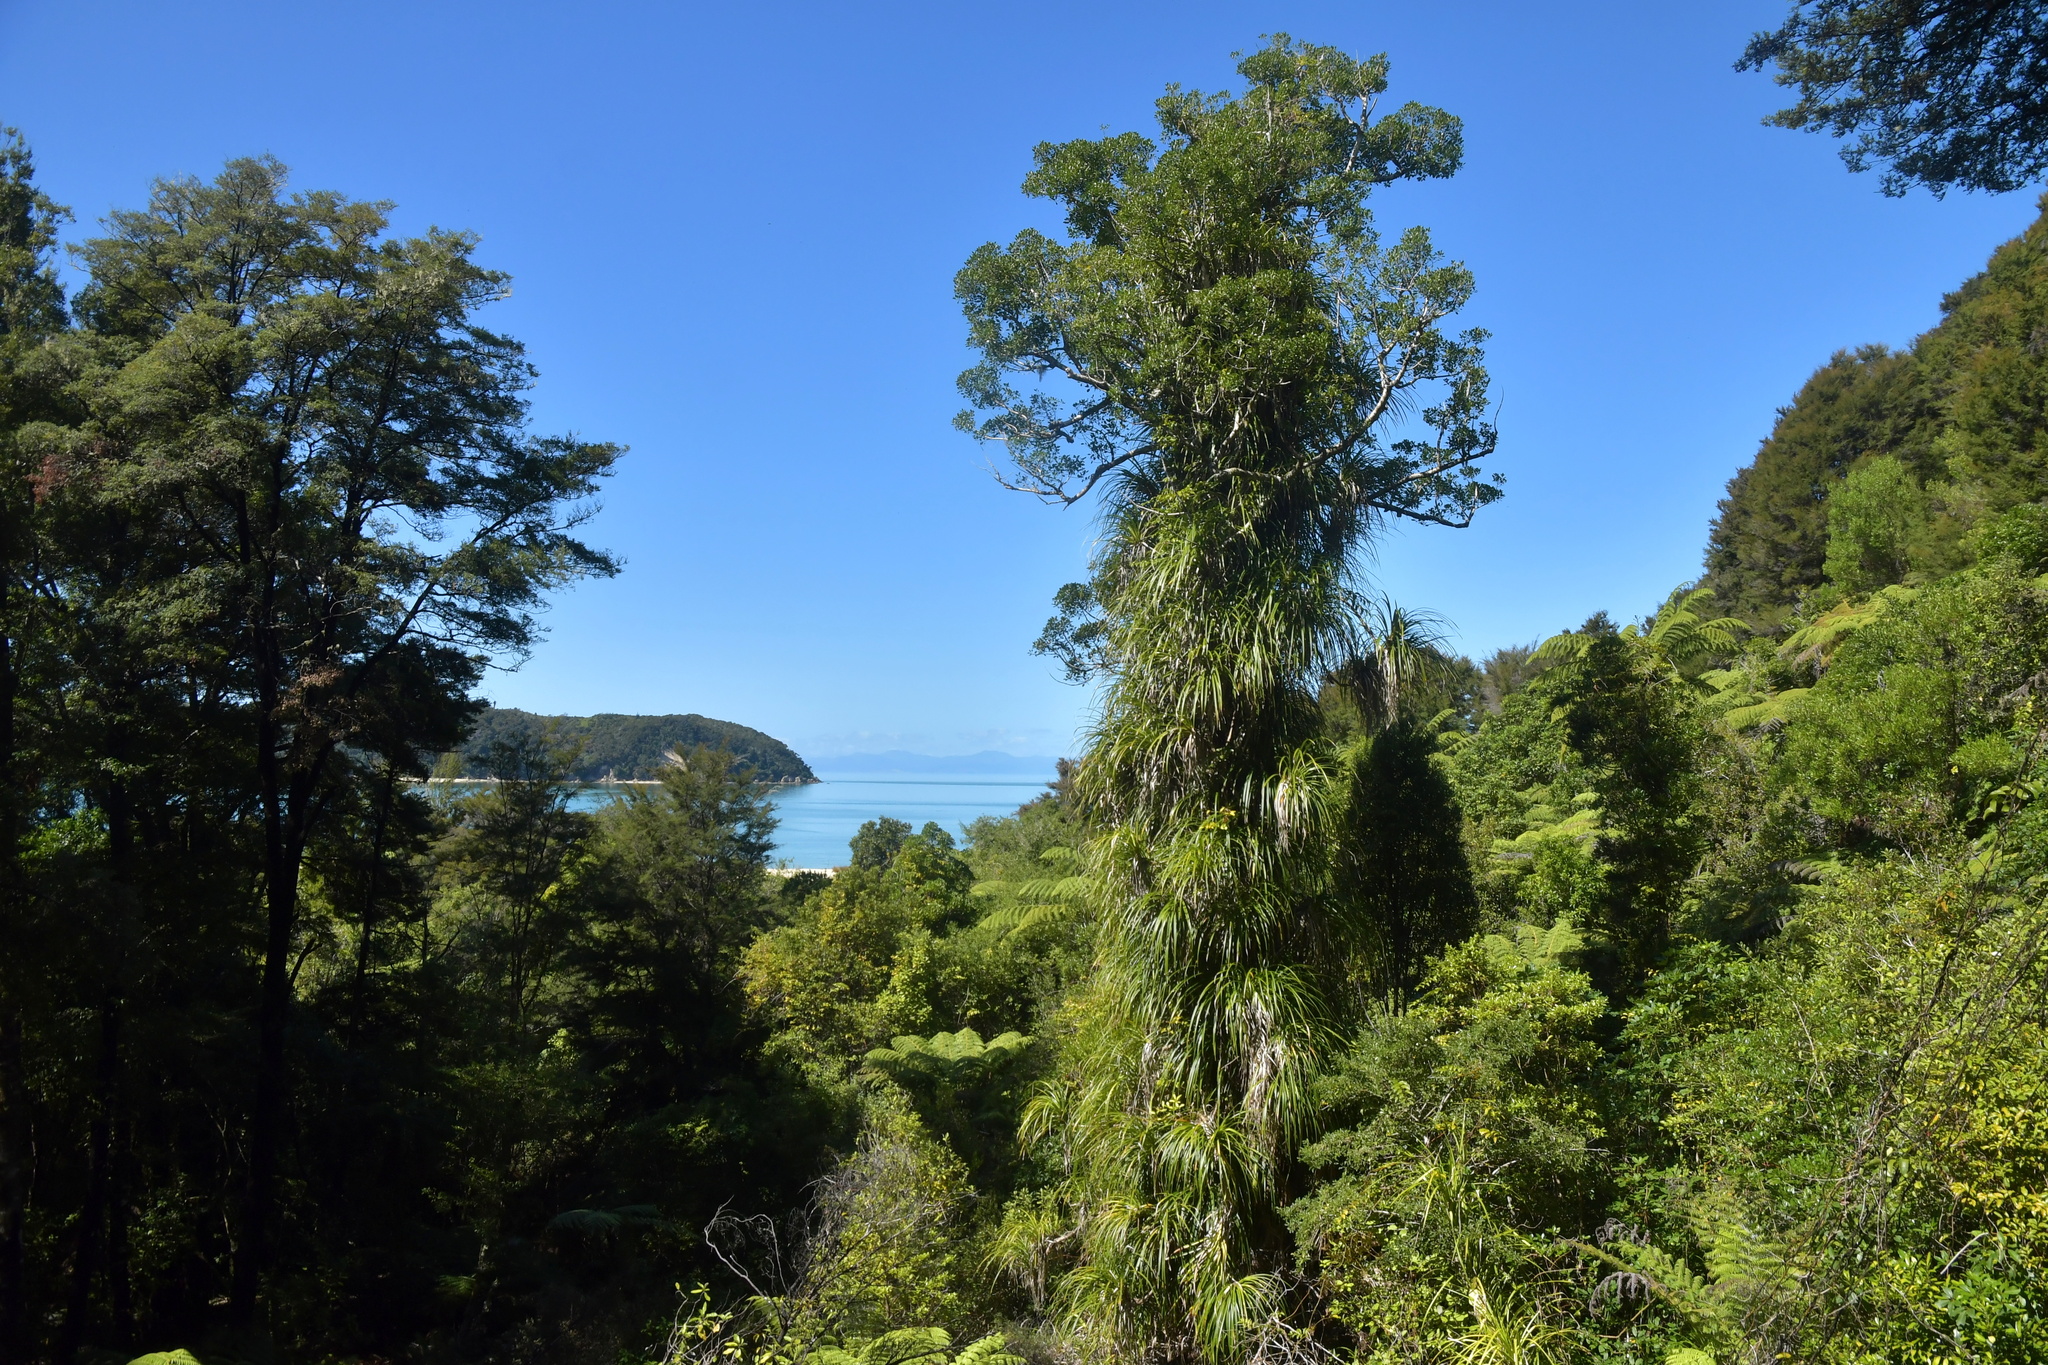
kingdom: Plantae
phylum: Tracheophyta
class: Liliopsida
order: Pandanales
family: Pandanaceae
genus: Freycinetia
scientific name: Freycinetia banksii
